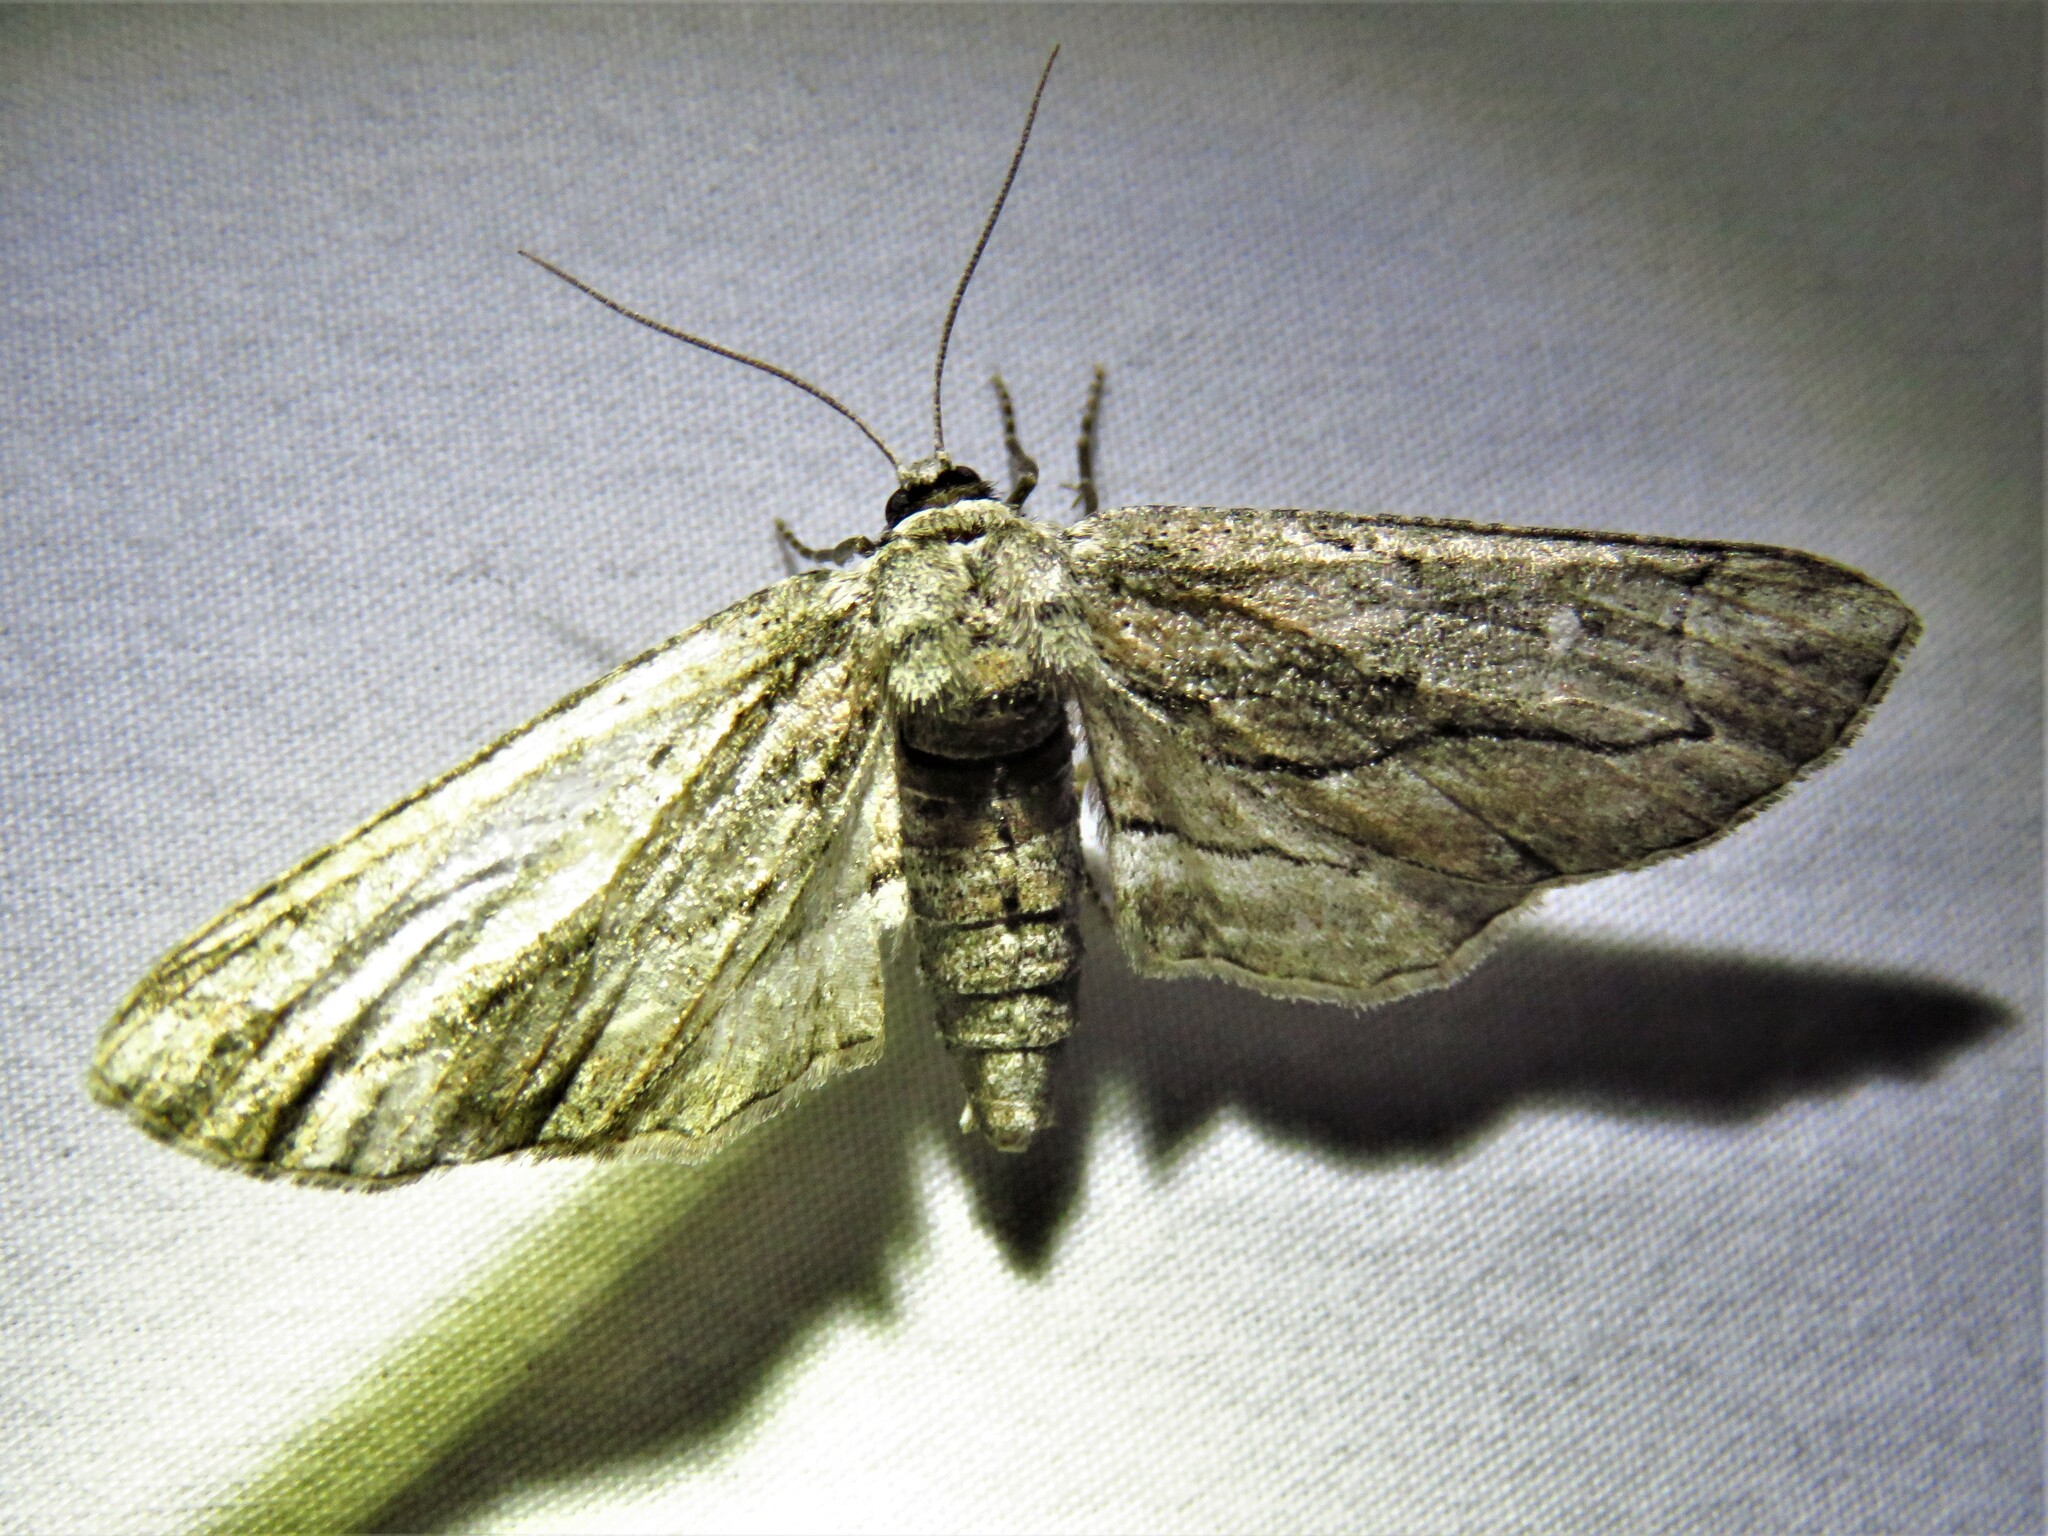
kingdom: Animalia
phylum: Arthropoda
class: Insecta
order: Lepidoptera
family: Geometridae
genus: Holochroa
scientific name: Holochroa dissociarius
